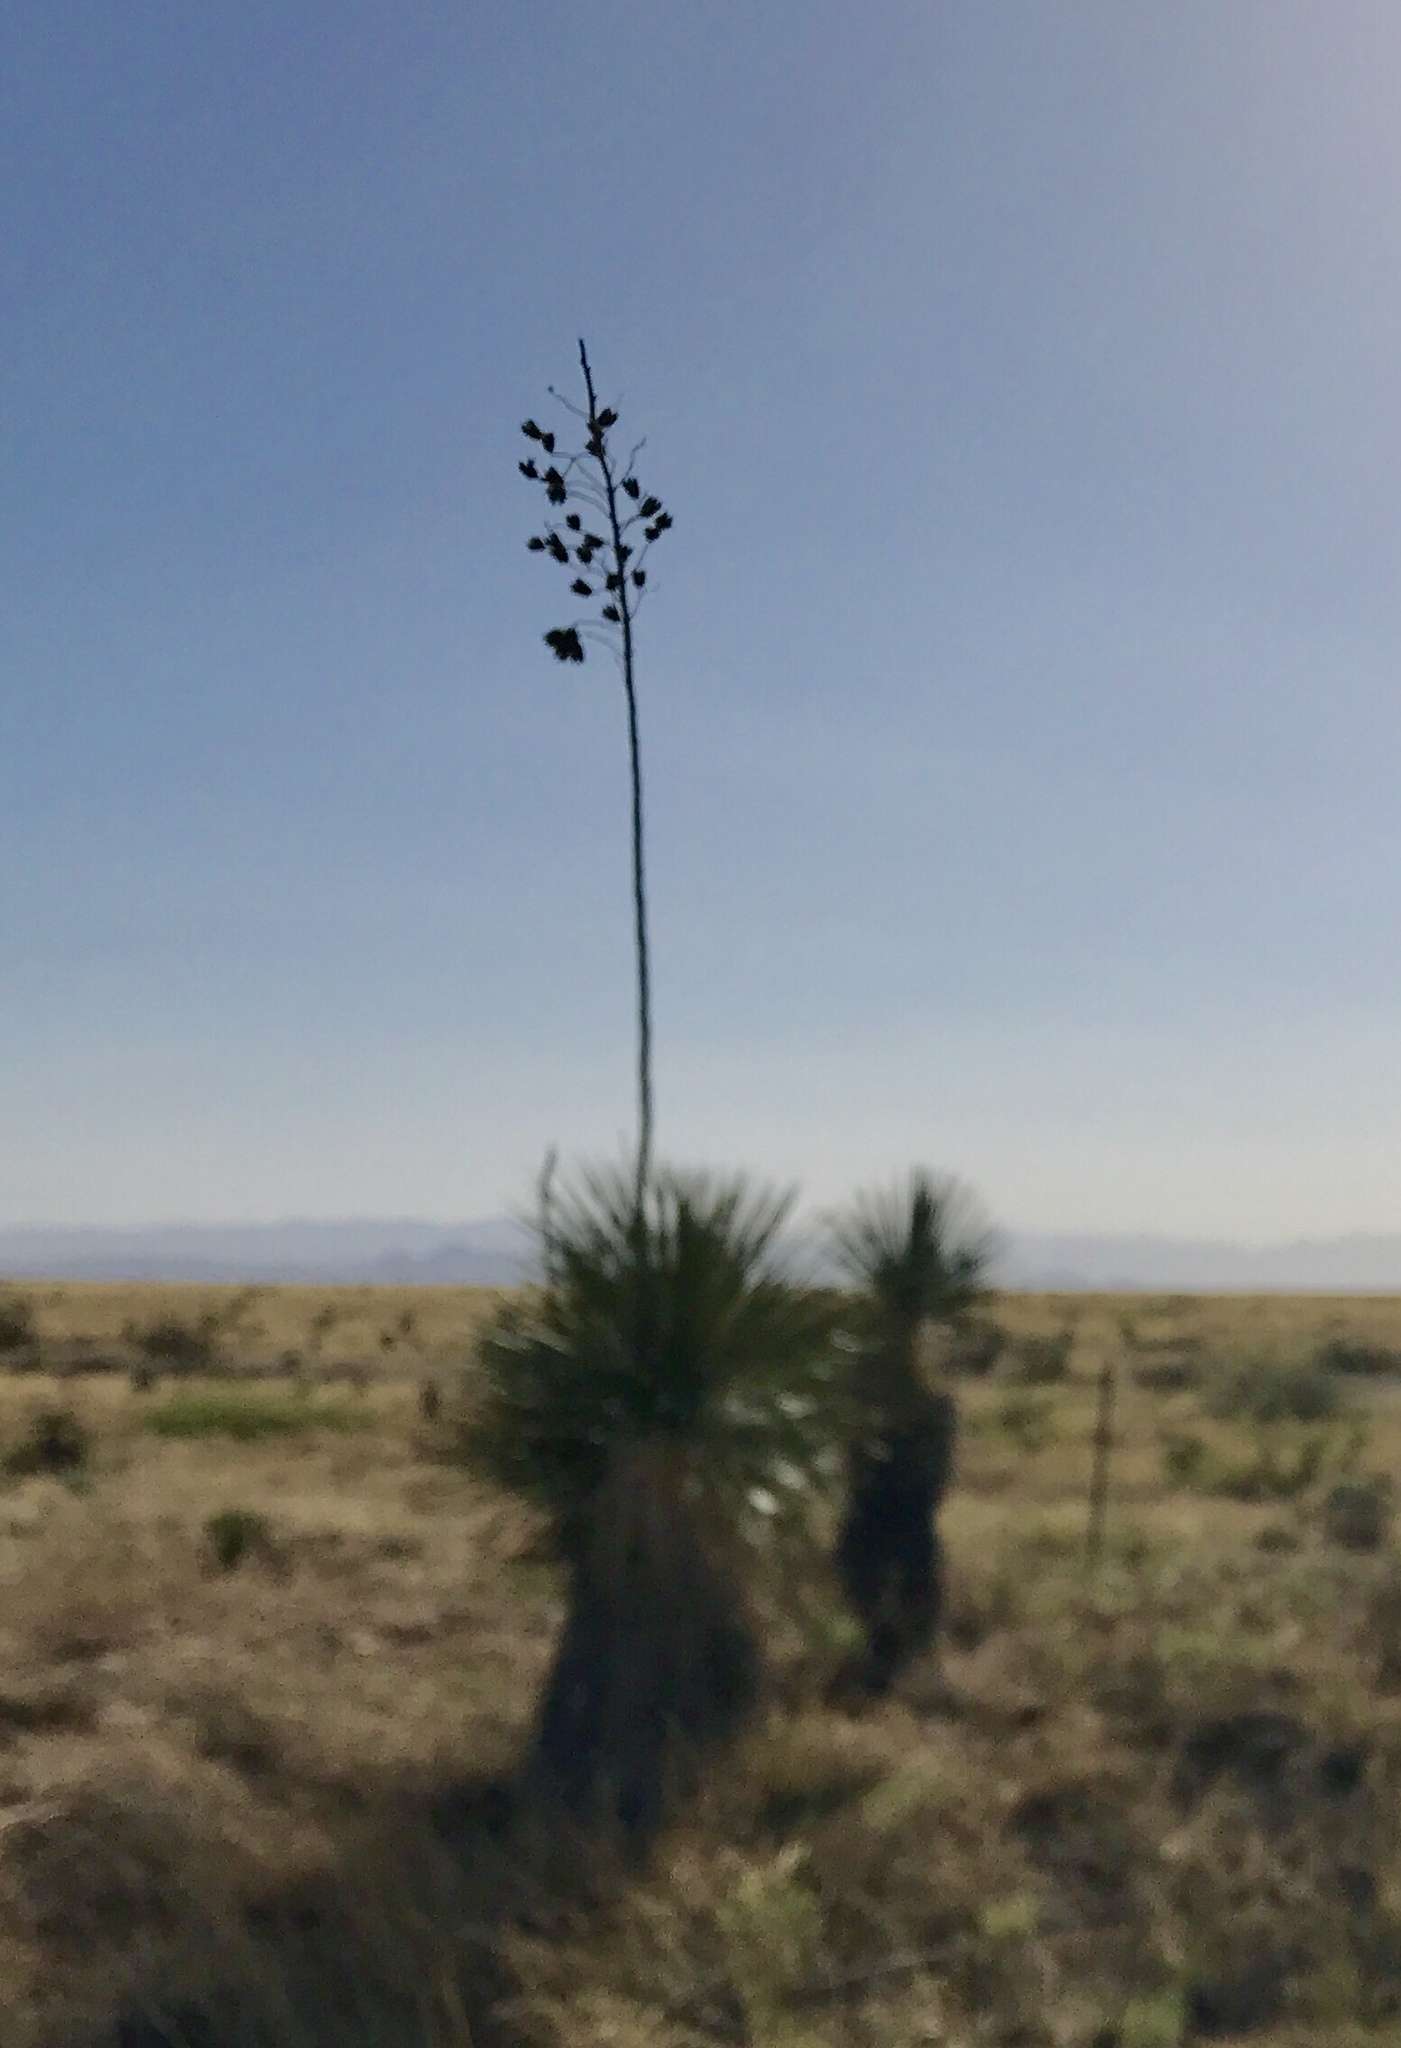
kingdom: Plantae
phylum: Tracheophyta
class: Liliopsida
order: Asparagales
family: Asparagaceae
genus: Yucca
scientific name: Yucca elata
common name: Palmella
